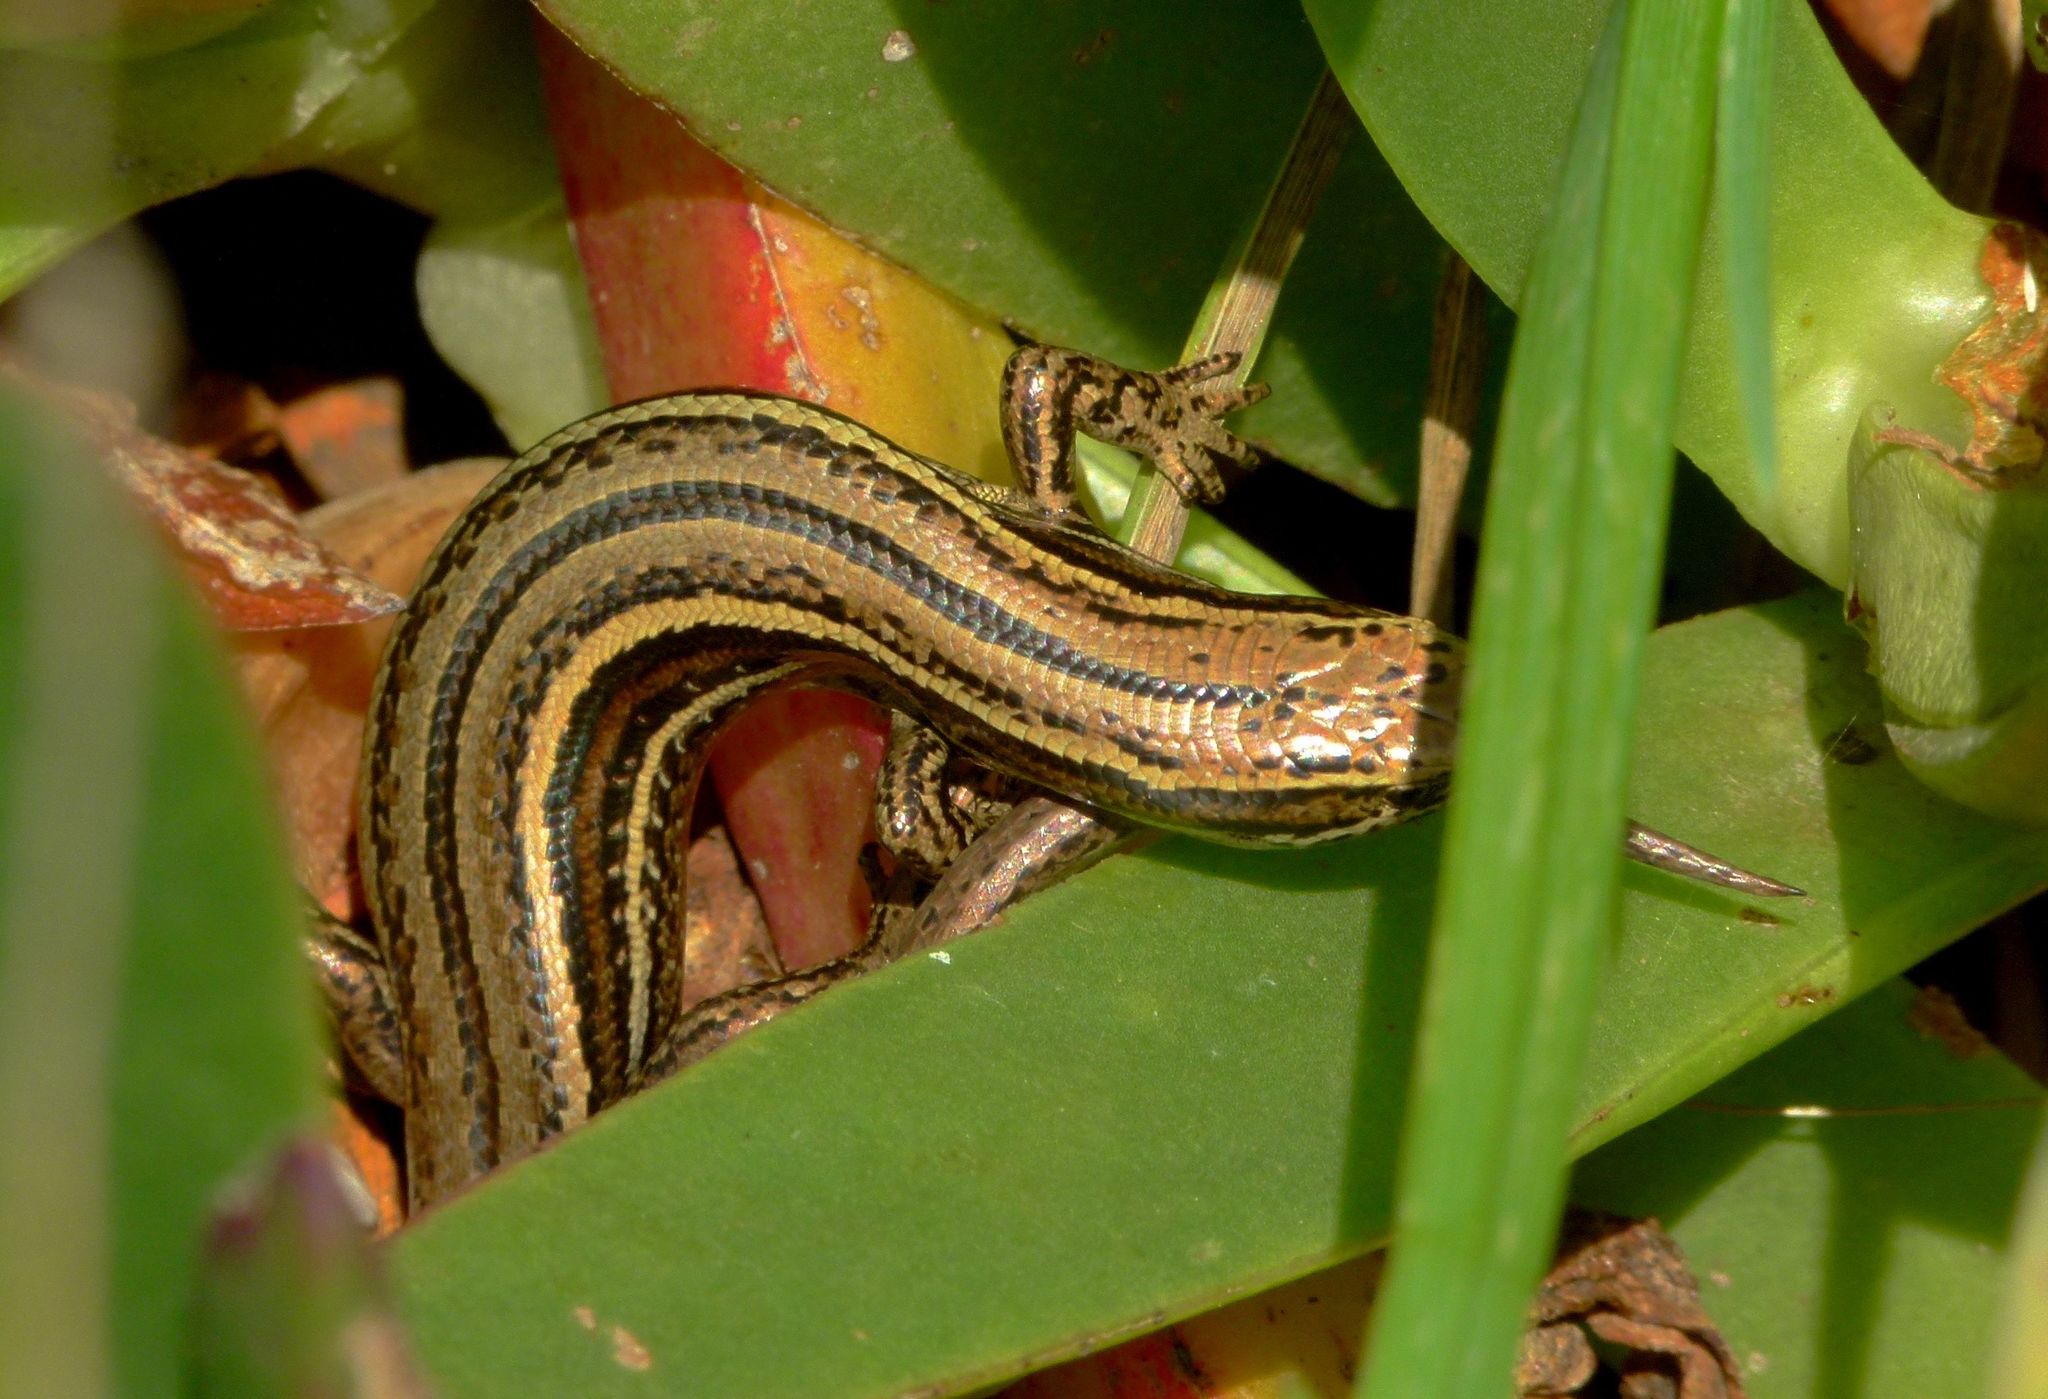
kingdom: Animalia
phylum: Chordata
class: Squamata
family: Scincidae
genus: Oligosoma
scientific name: Oligosoma inconspicuum
